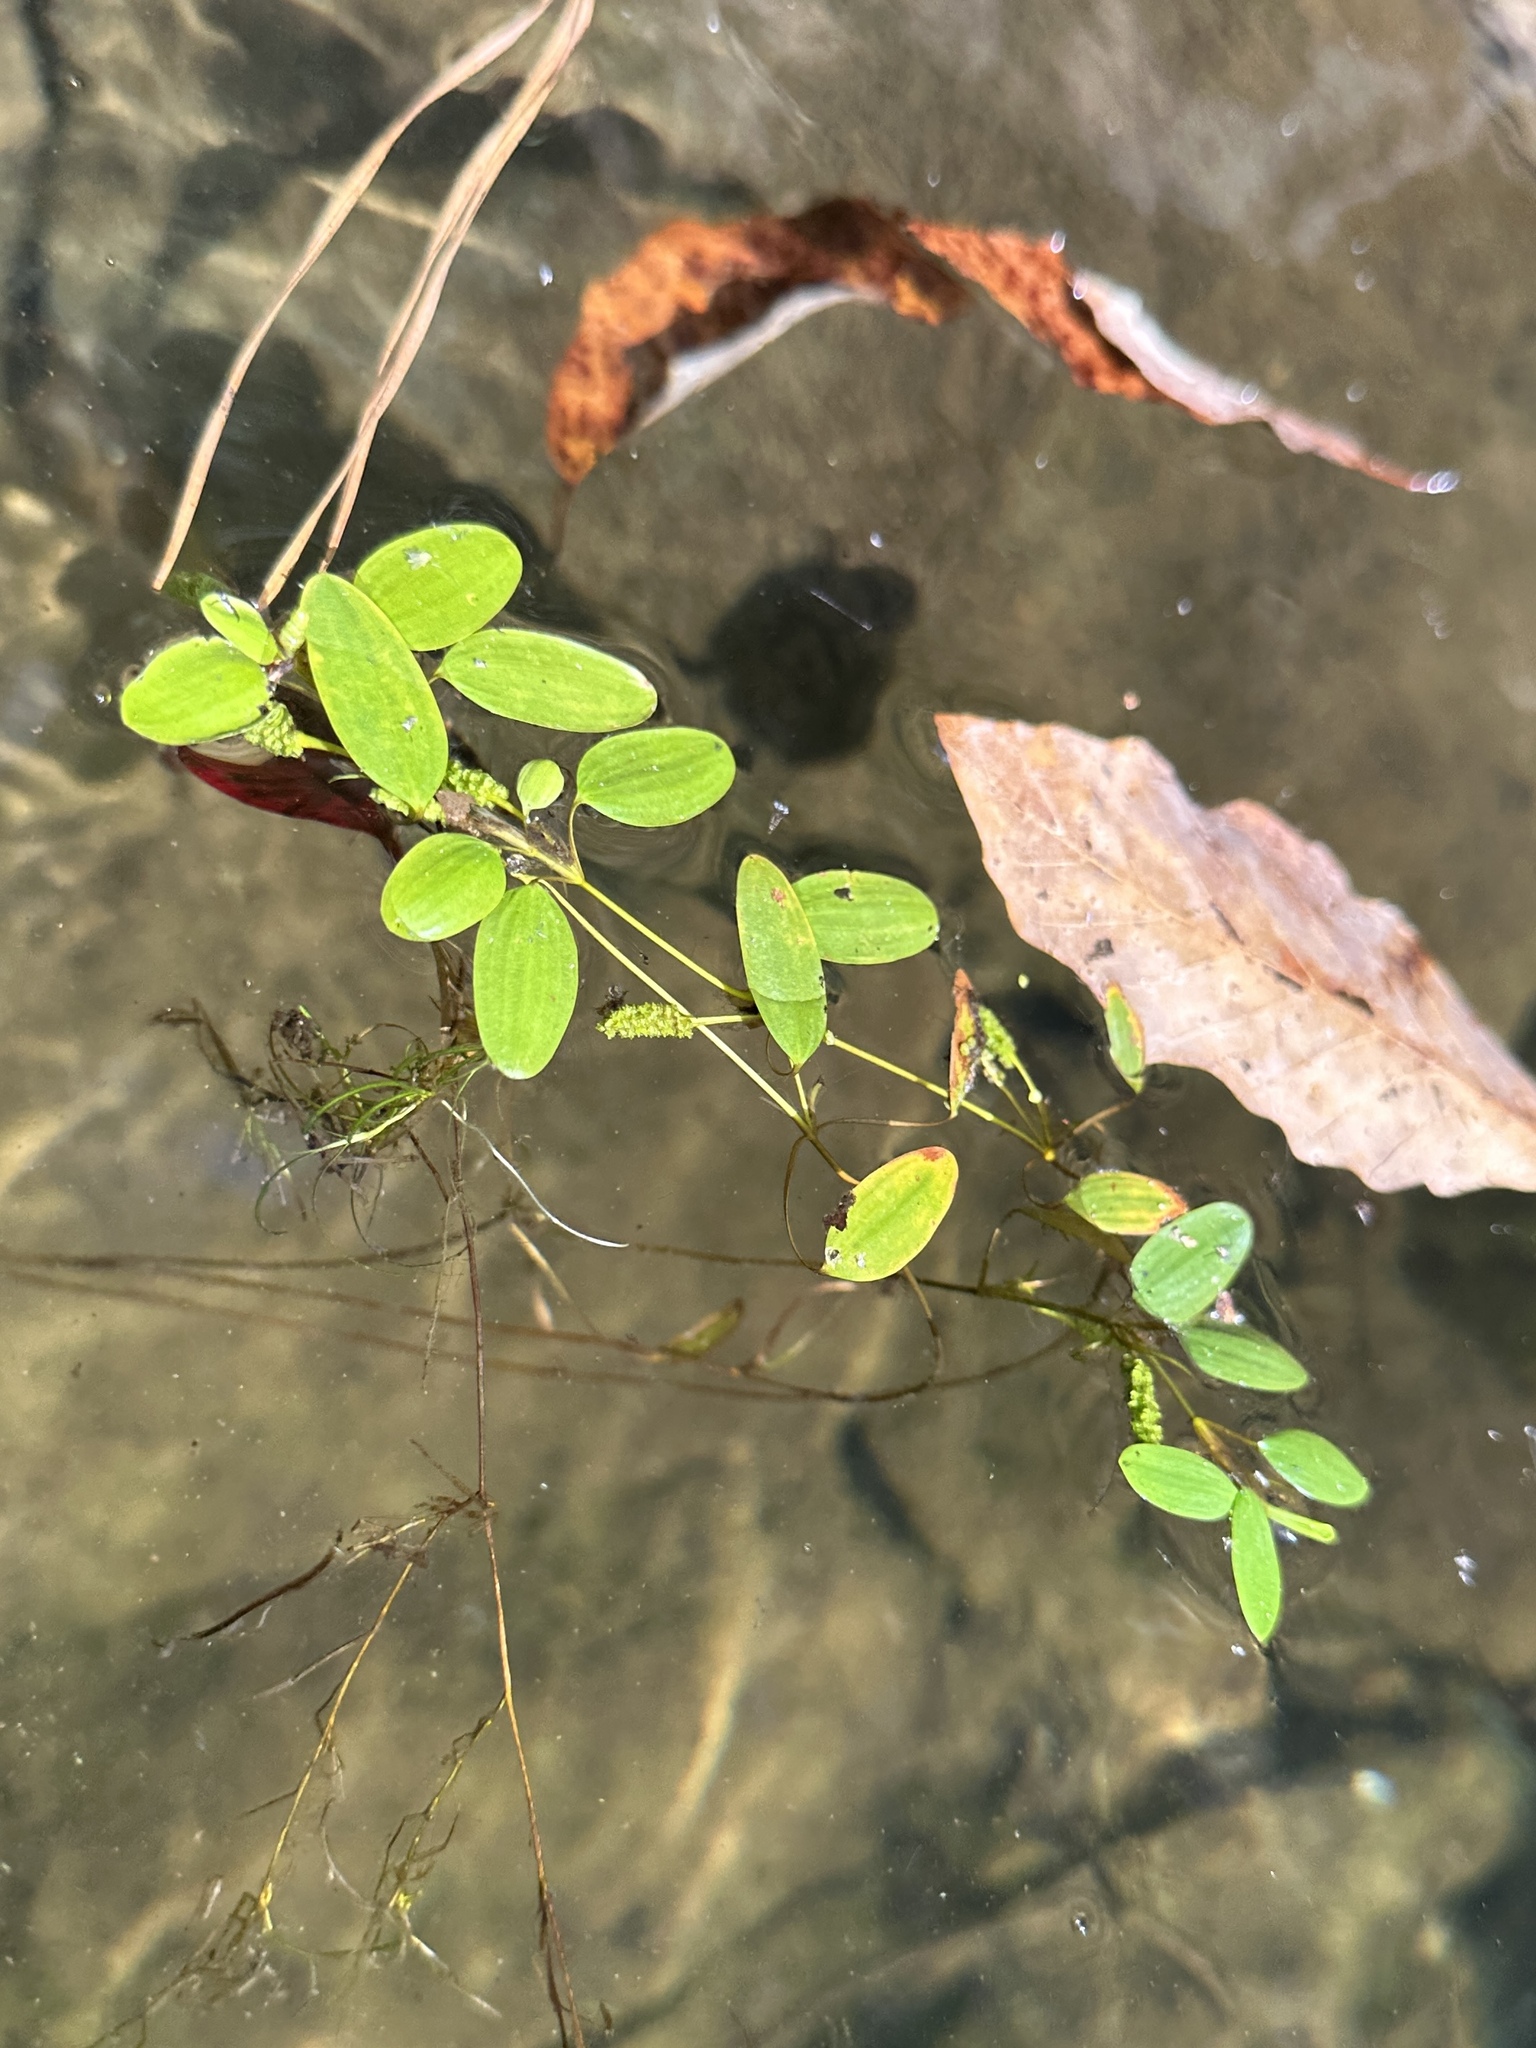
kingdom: Plantae
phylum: Tracheophyta
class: Liliopsida
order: Alismatales
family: Potamogetonaceae
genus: Potamogeton
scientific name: Potamogeton diversifolius
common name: Water-thread pondweed
